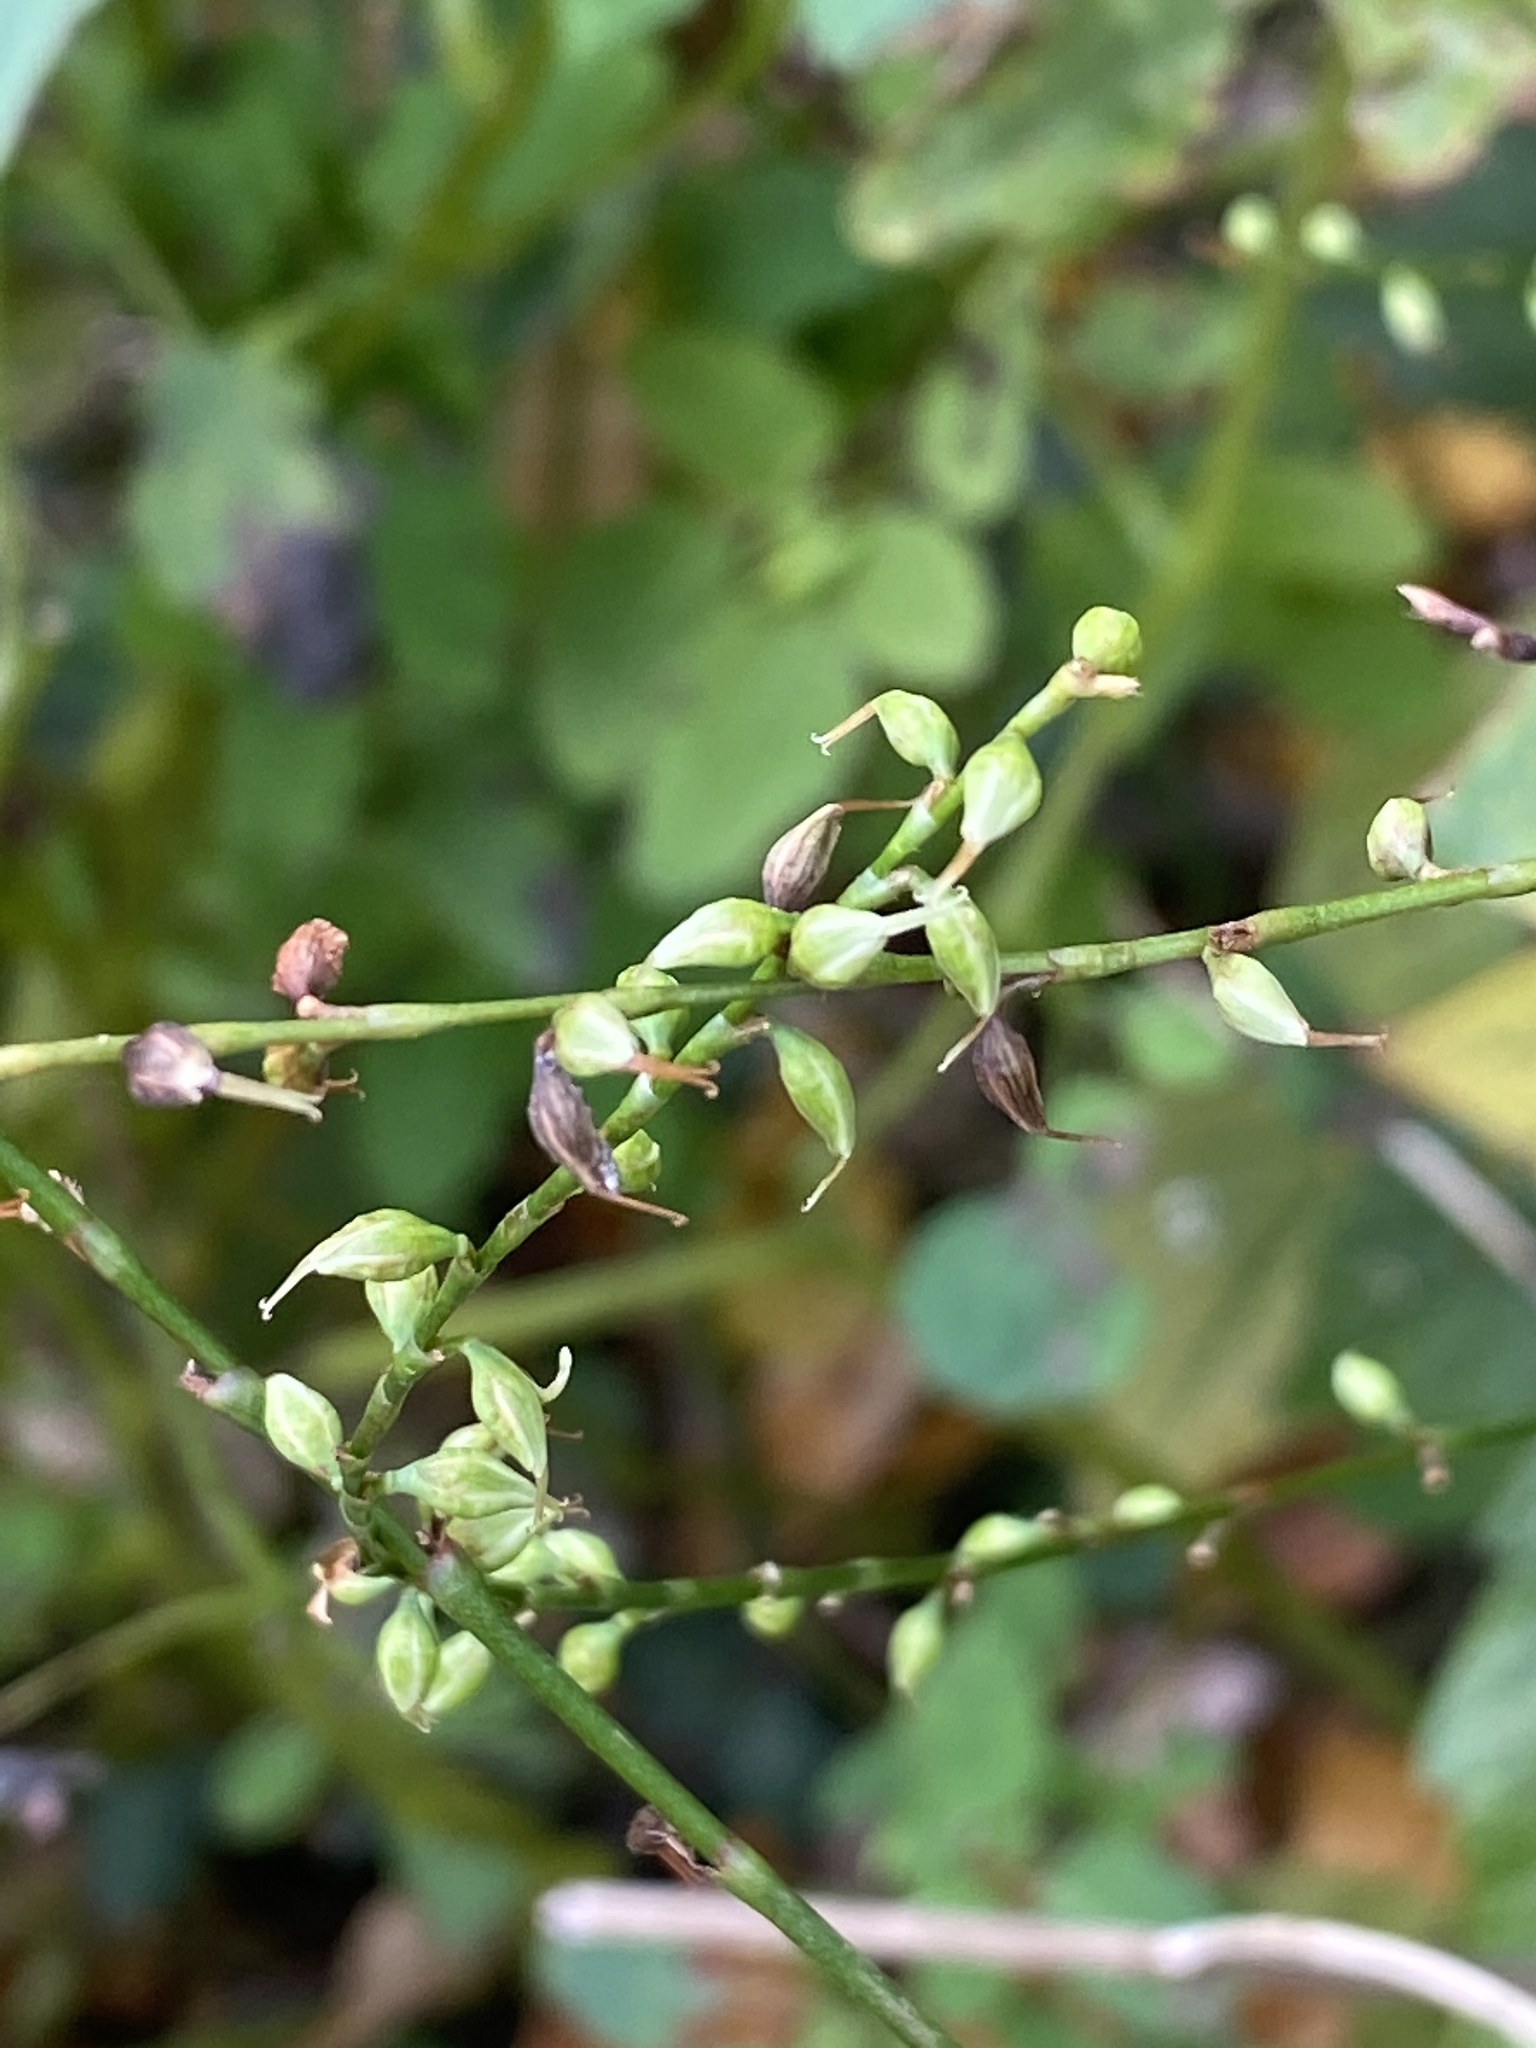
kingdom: Plantae
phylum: Tracheophyta
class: Magnoliopsida
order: Caryophyllales
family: Polygonaceae
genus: Persicaria
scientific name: Persicaria virginiana
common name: Jumpseed
